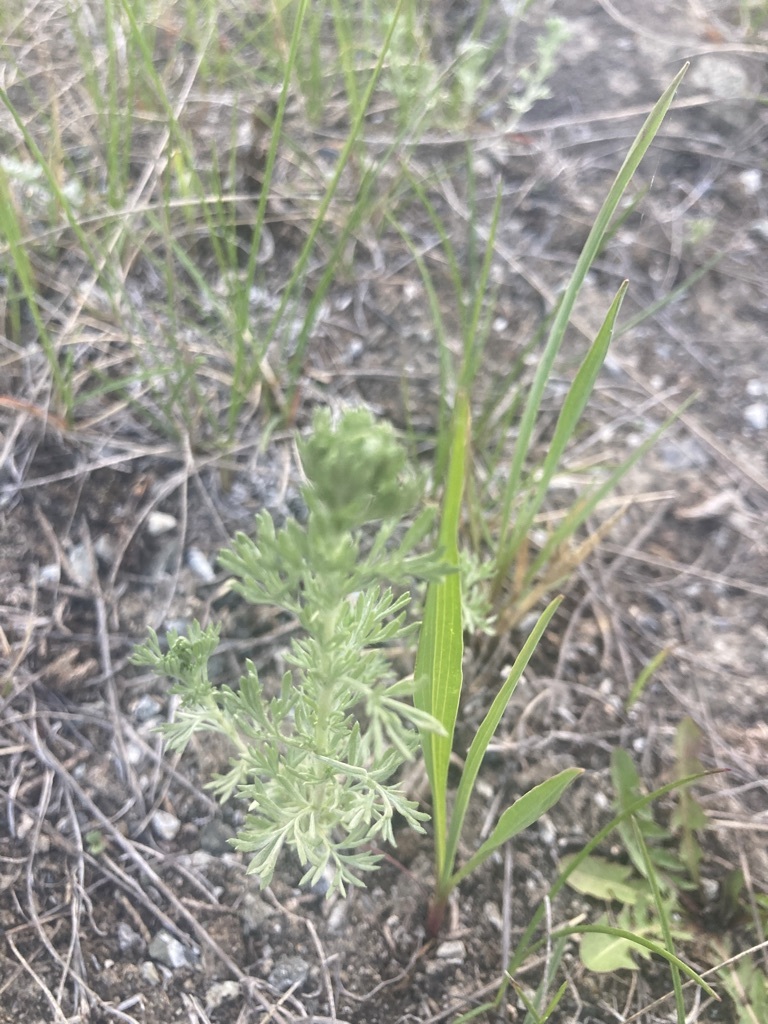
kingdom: Plantae
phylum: Tracheophyta
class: Magnoliopsida
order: Asterales
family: Asteraceae
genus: Artemisia
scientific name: Artemisia frigida
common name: Prairie sagewort
